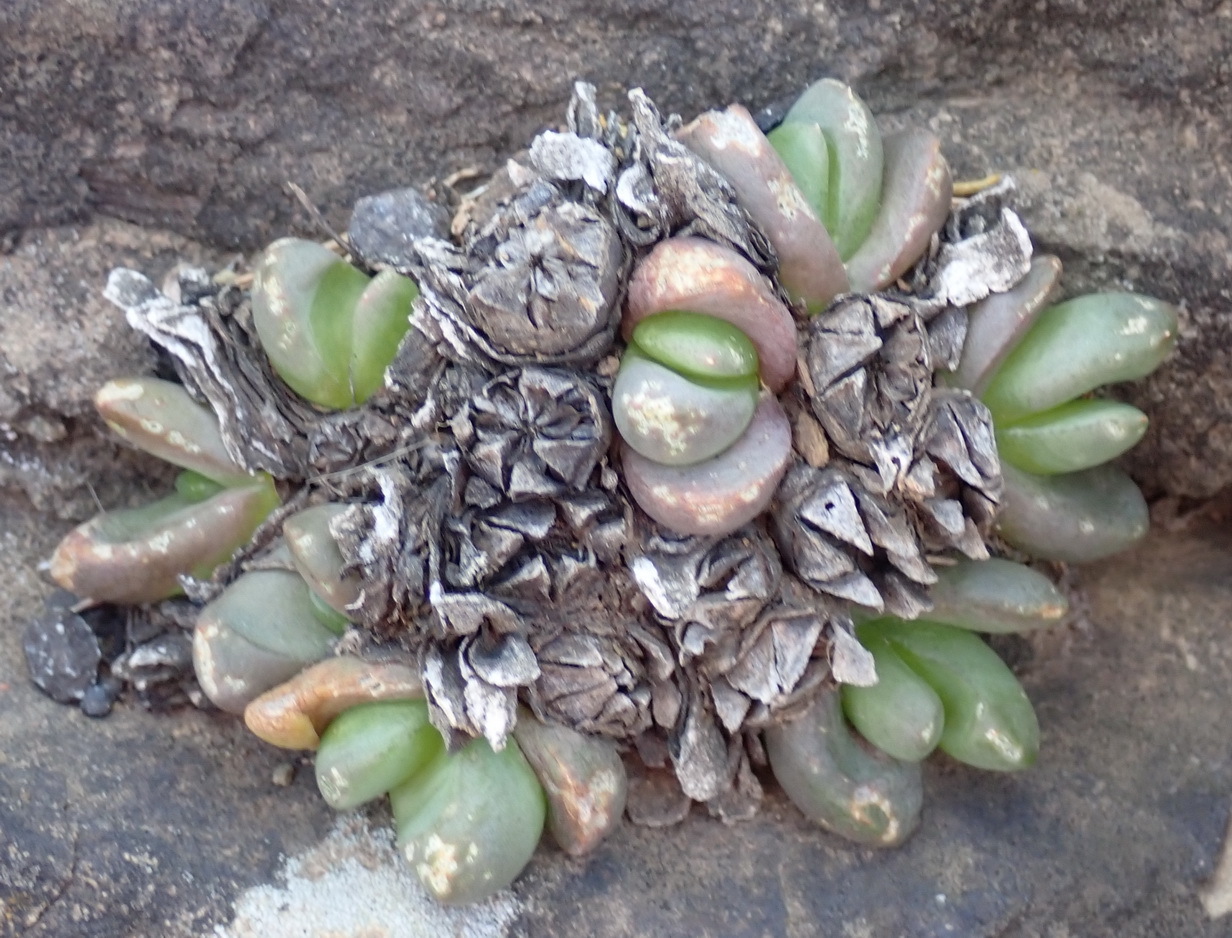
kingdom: Plantae
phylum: Tracheophyta
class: Magnoliopsida
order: Caryophyllales
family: Aizoaceae
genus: Glottiphyllum
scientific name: Glottiphyllum depressum
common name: Fig-marigold
